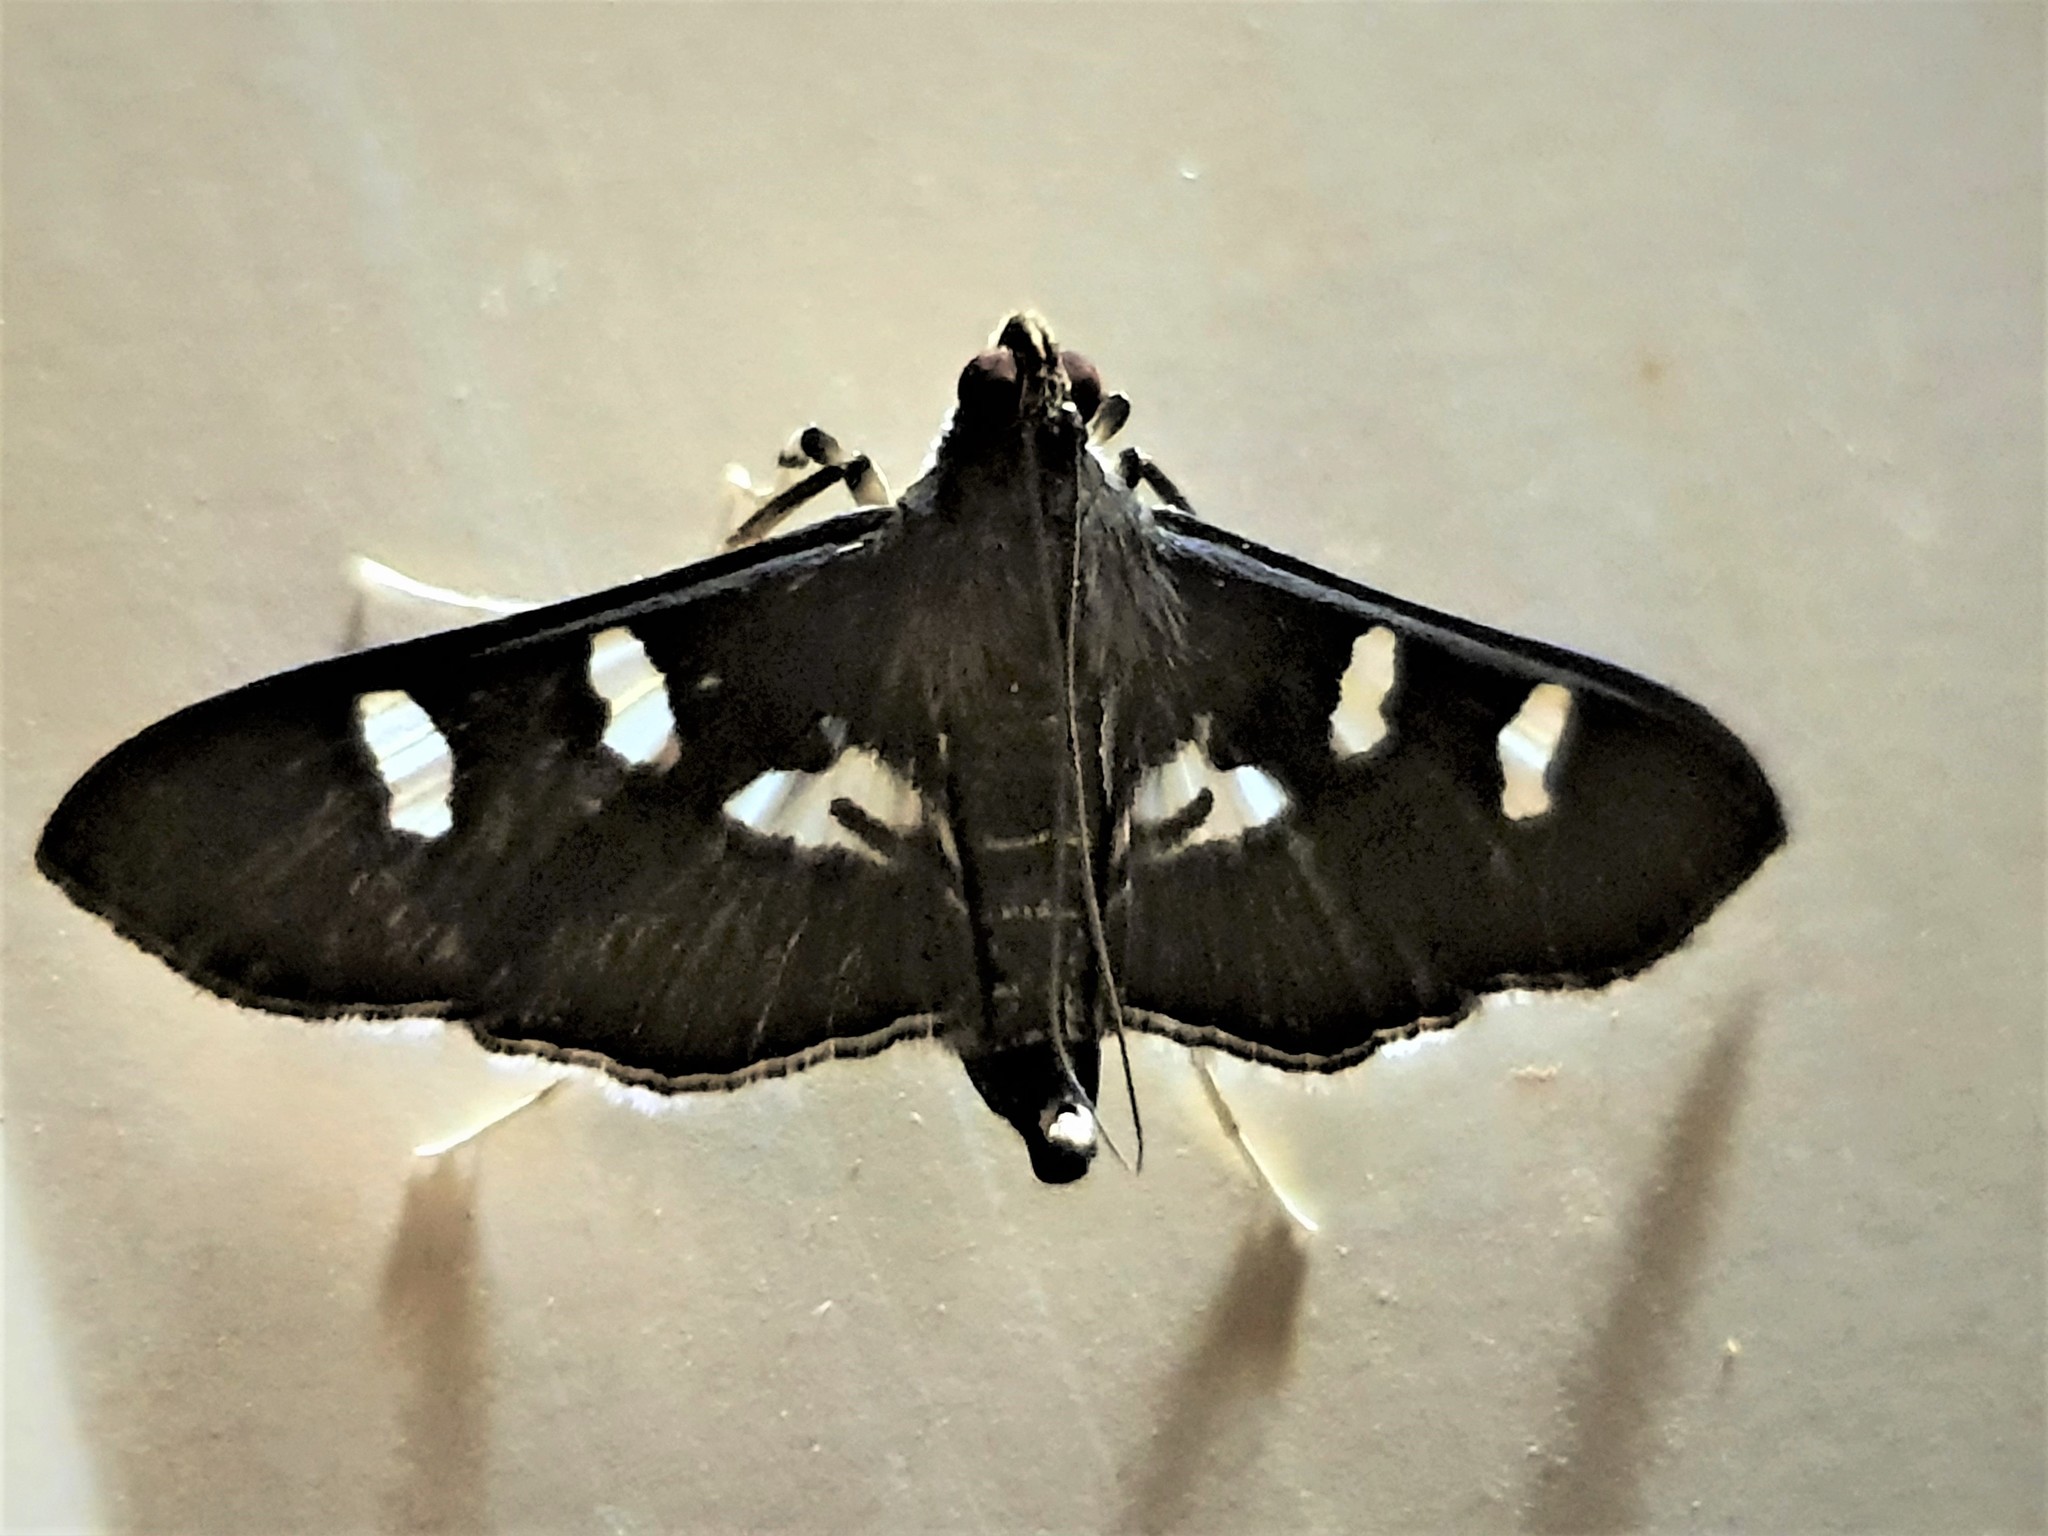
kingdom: Animalia
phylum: Arthropoda
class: Insecta
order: Lepidoptera
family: Crambidae
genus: Desmia
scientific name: Desmia tages
